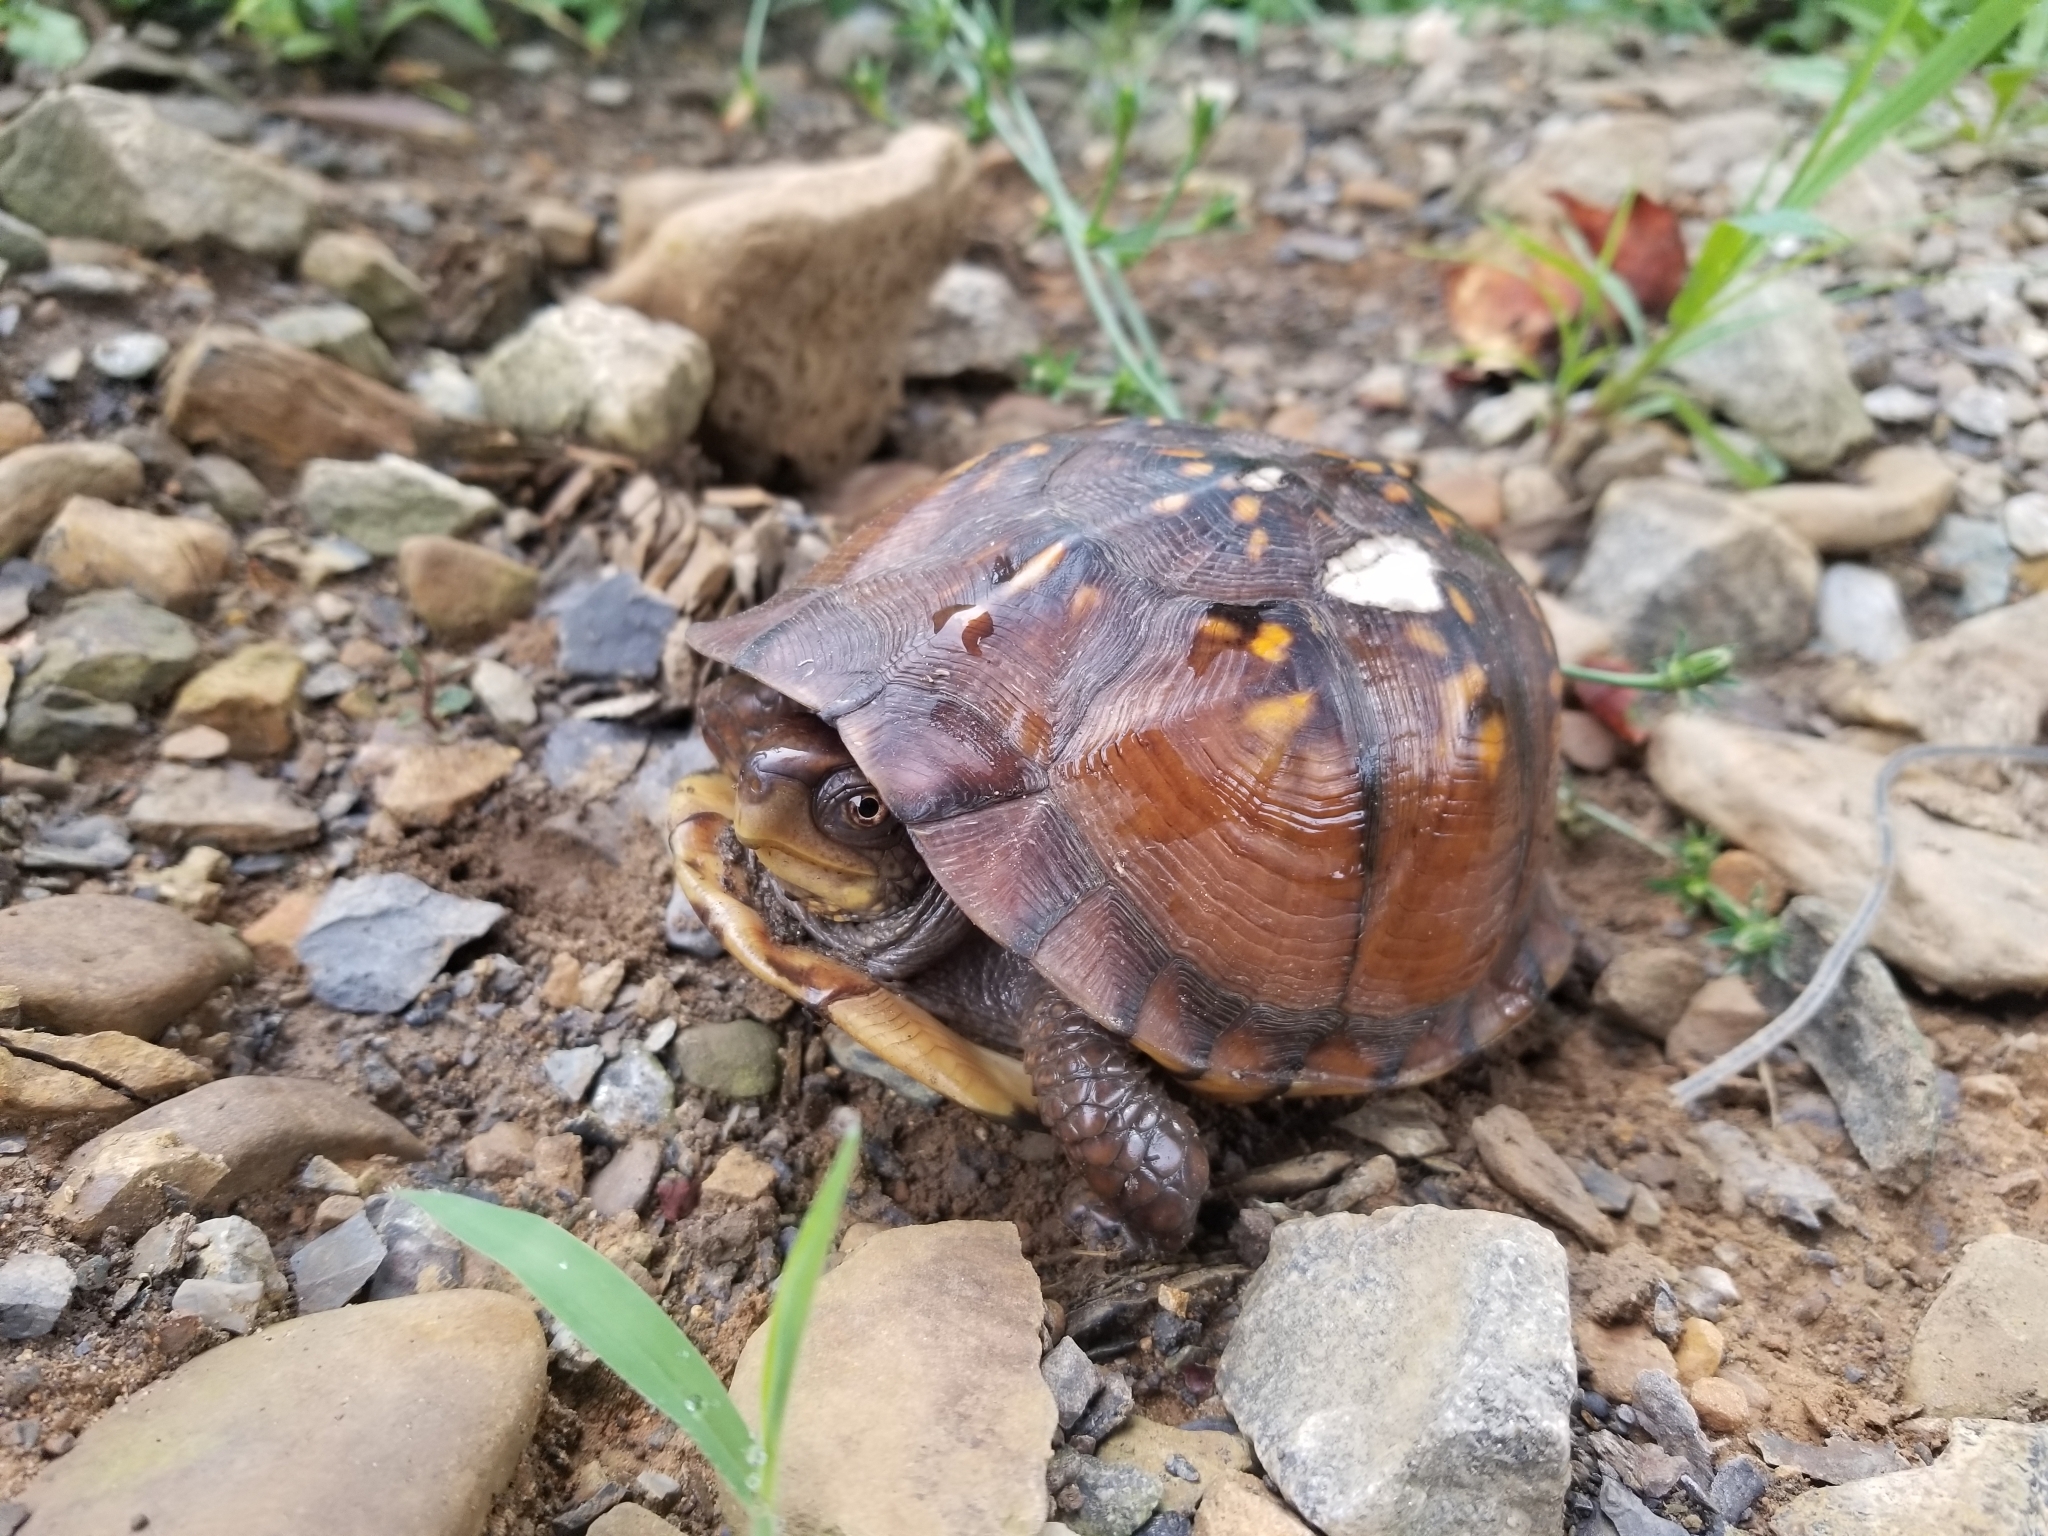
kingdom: Animalia
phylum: Chordata
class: Testudines
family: Emydidae
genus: Terrapene
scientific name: Terrapene carolina
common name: Common box turtle
